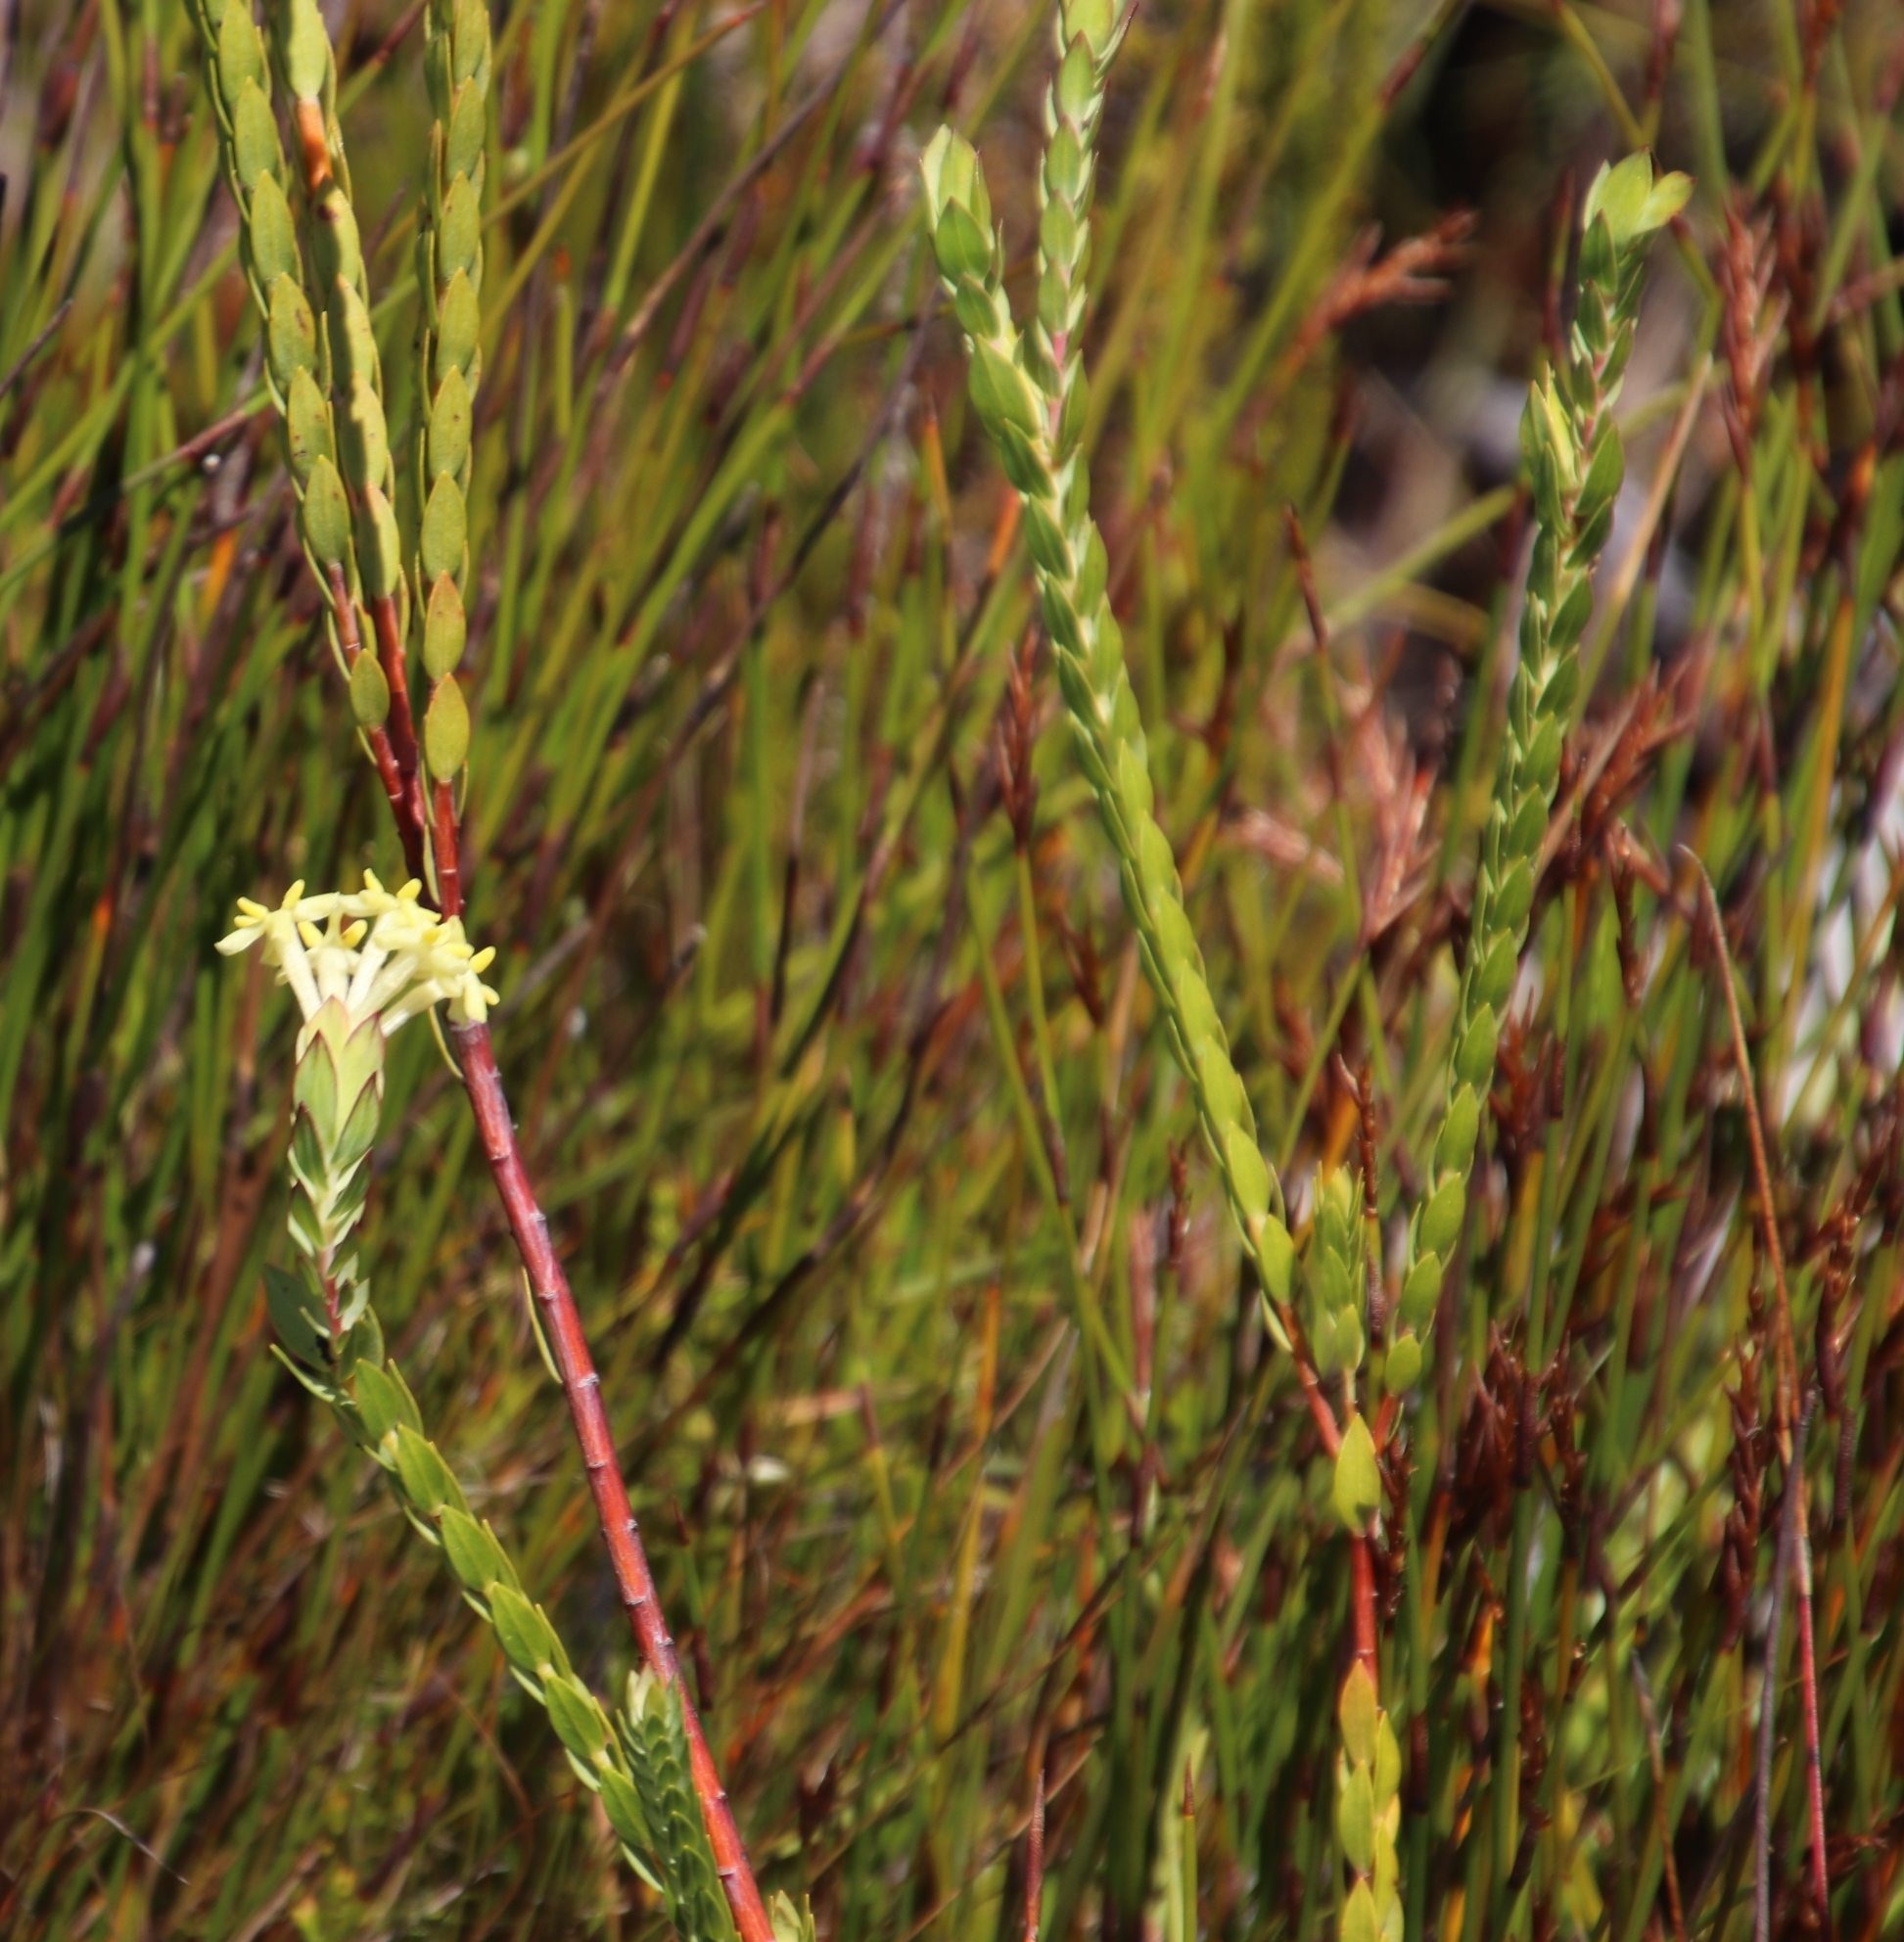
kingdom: Plantae
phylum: Tracheophyta
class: Magnoliopsida
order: Malvales
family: Thymelaeaceae
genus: Gnidia
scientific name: Gnidia oppositifolia
